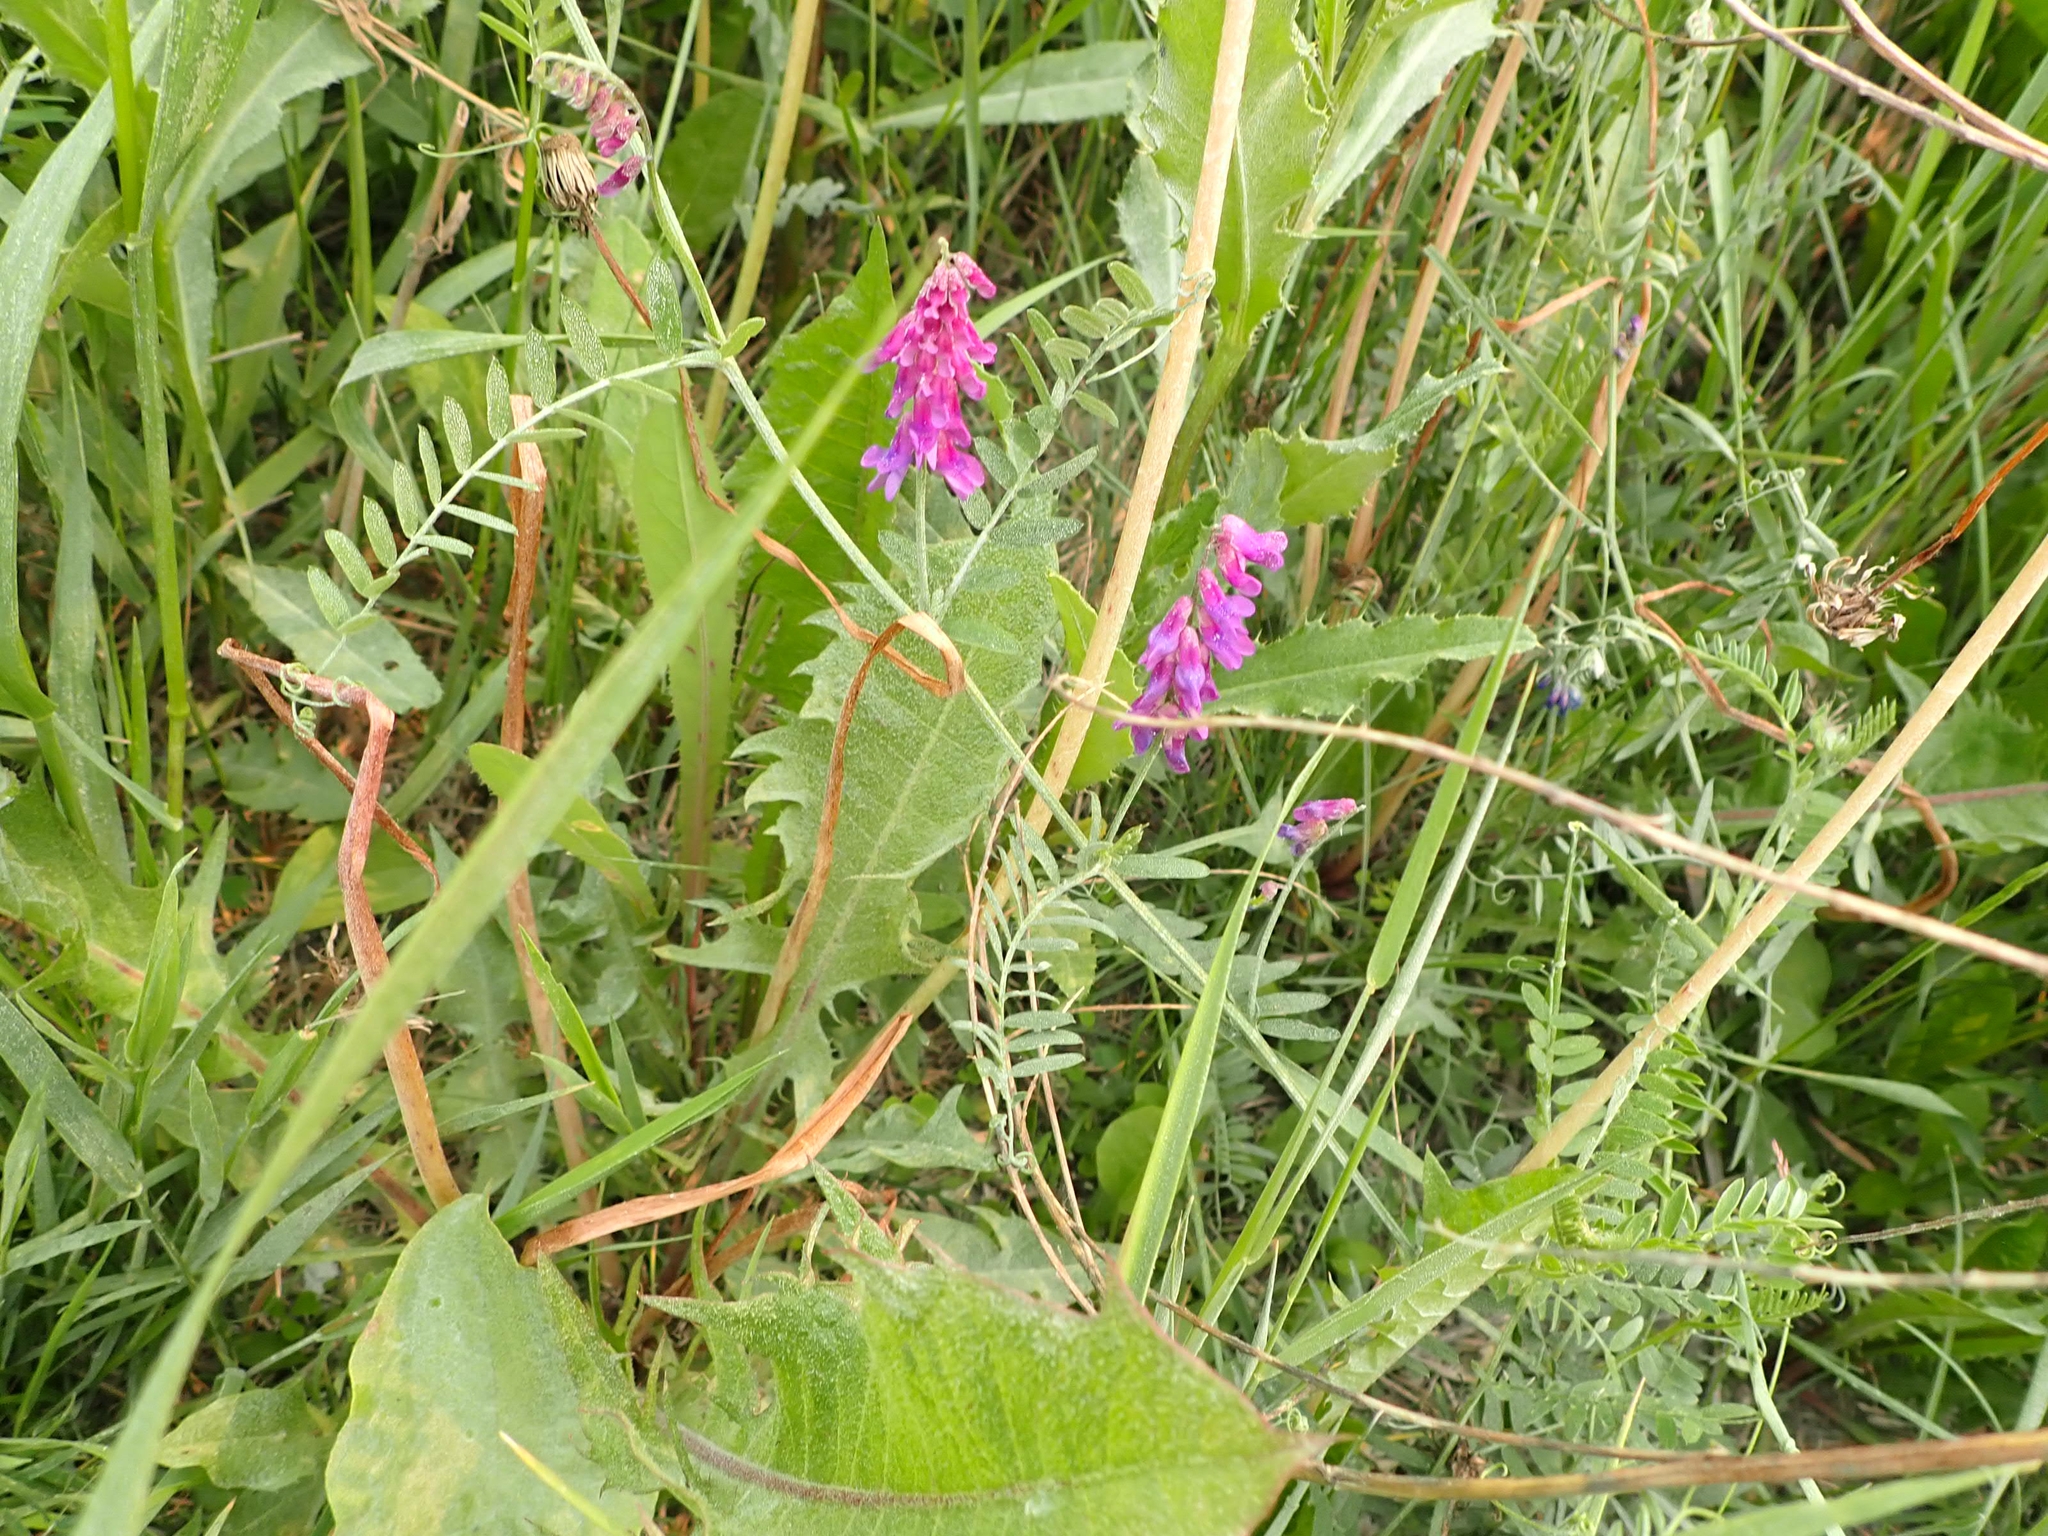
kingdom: Plantae
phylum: Tracheophyta
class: Magnoliopsida
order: Fabales
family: Fabaceae
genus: Vicia
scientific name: Vicia cracca
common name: Bird vetch
